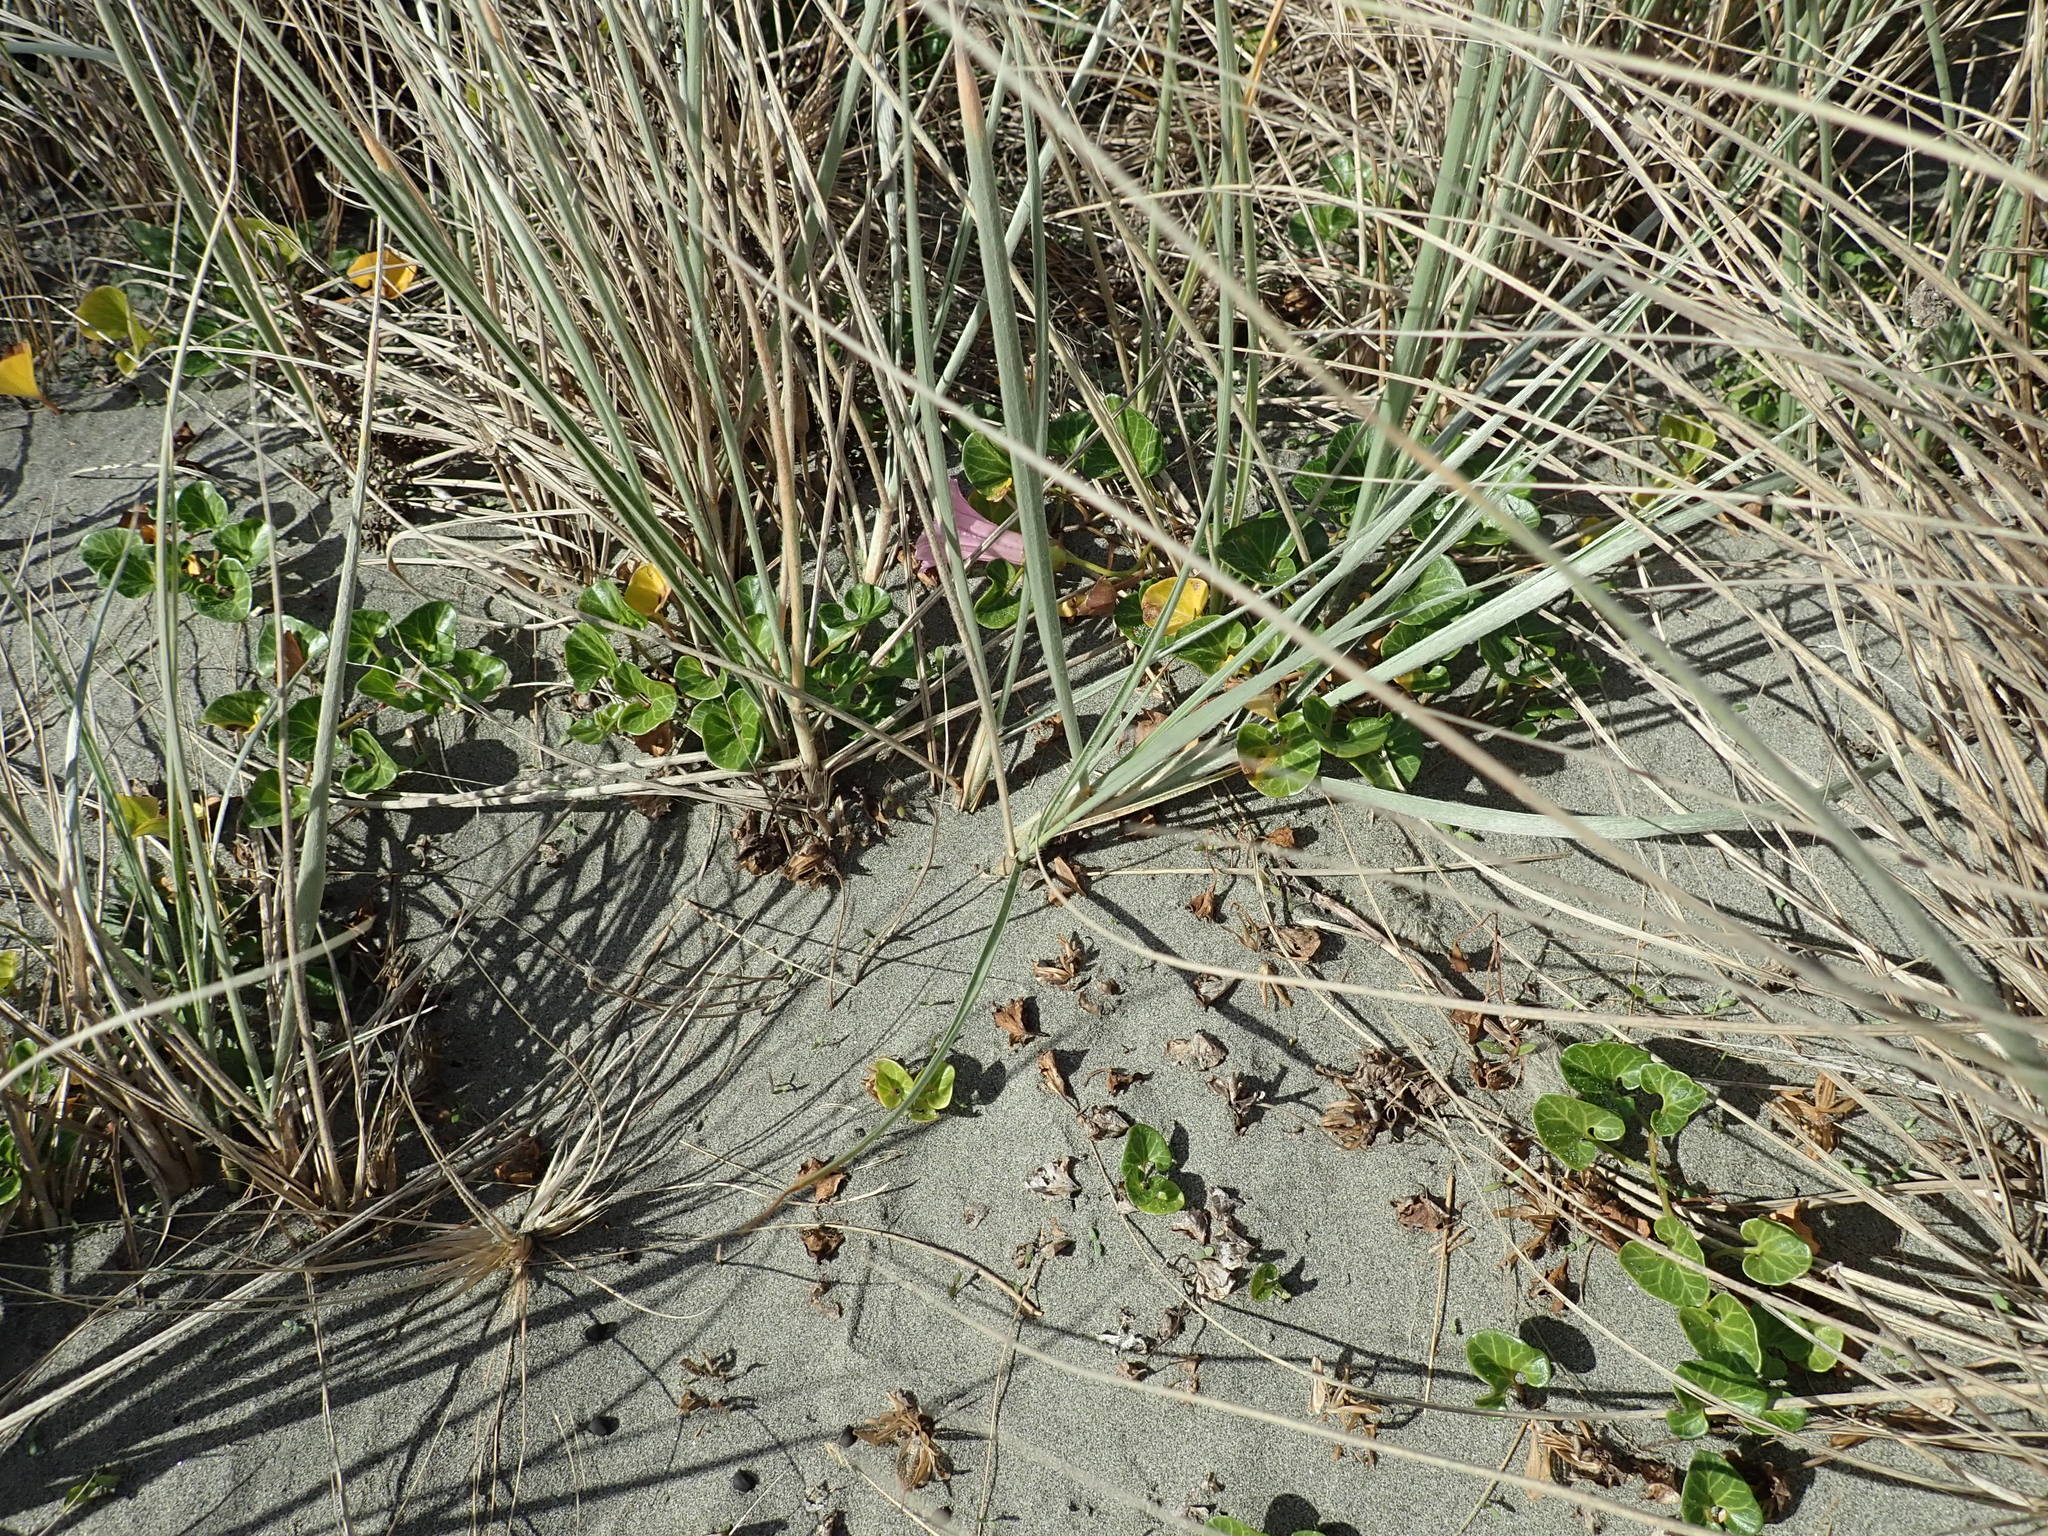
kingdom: Plantae
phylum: Tracheophyta
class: Magnoliopsida
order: Solanales
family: Convolvulaceae
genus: Calystegia
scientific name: Calystegia soldanella
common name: Sea bindweed
